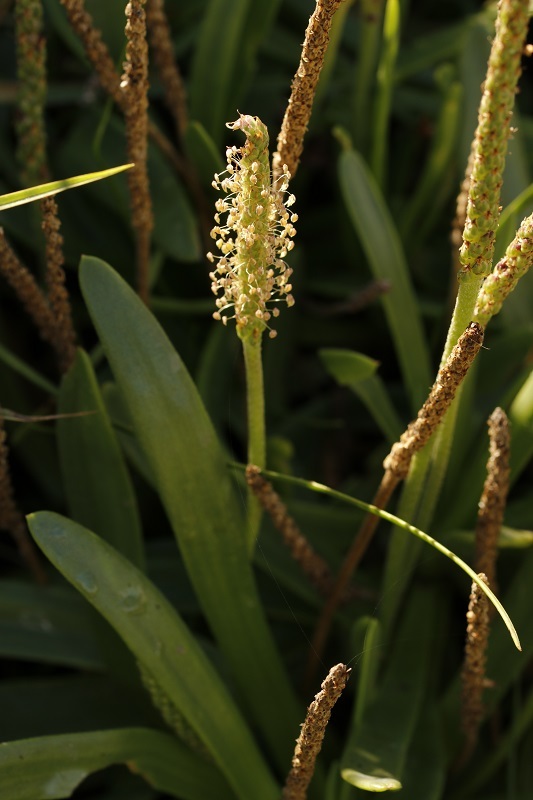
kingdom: Plantae
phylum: Tracheophyta
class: Magnoliopsida
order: Lamiales
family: Plantaginaceae
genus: Plantago
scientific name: Plantago carnosa
